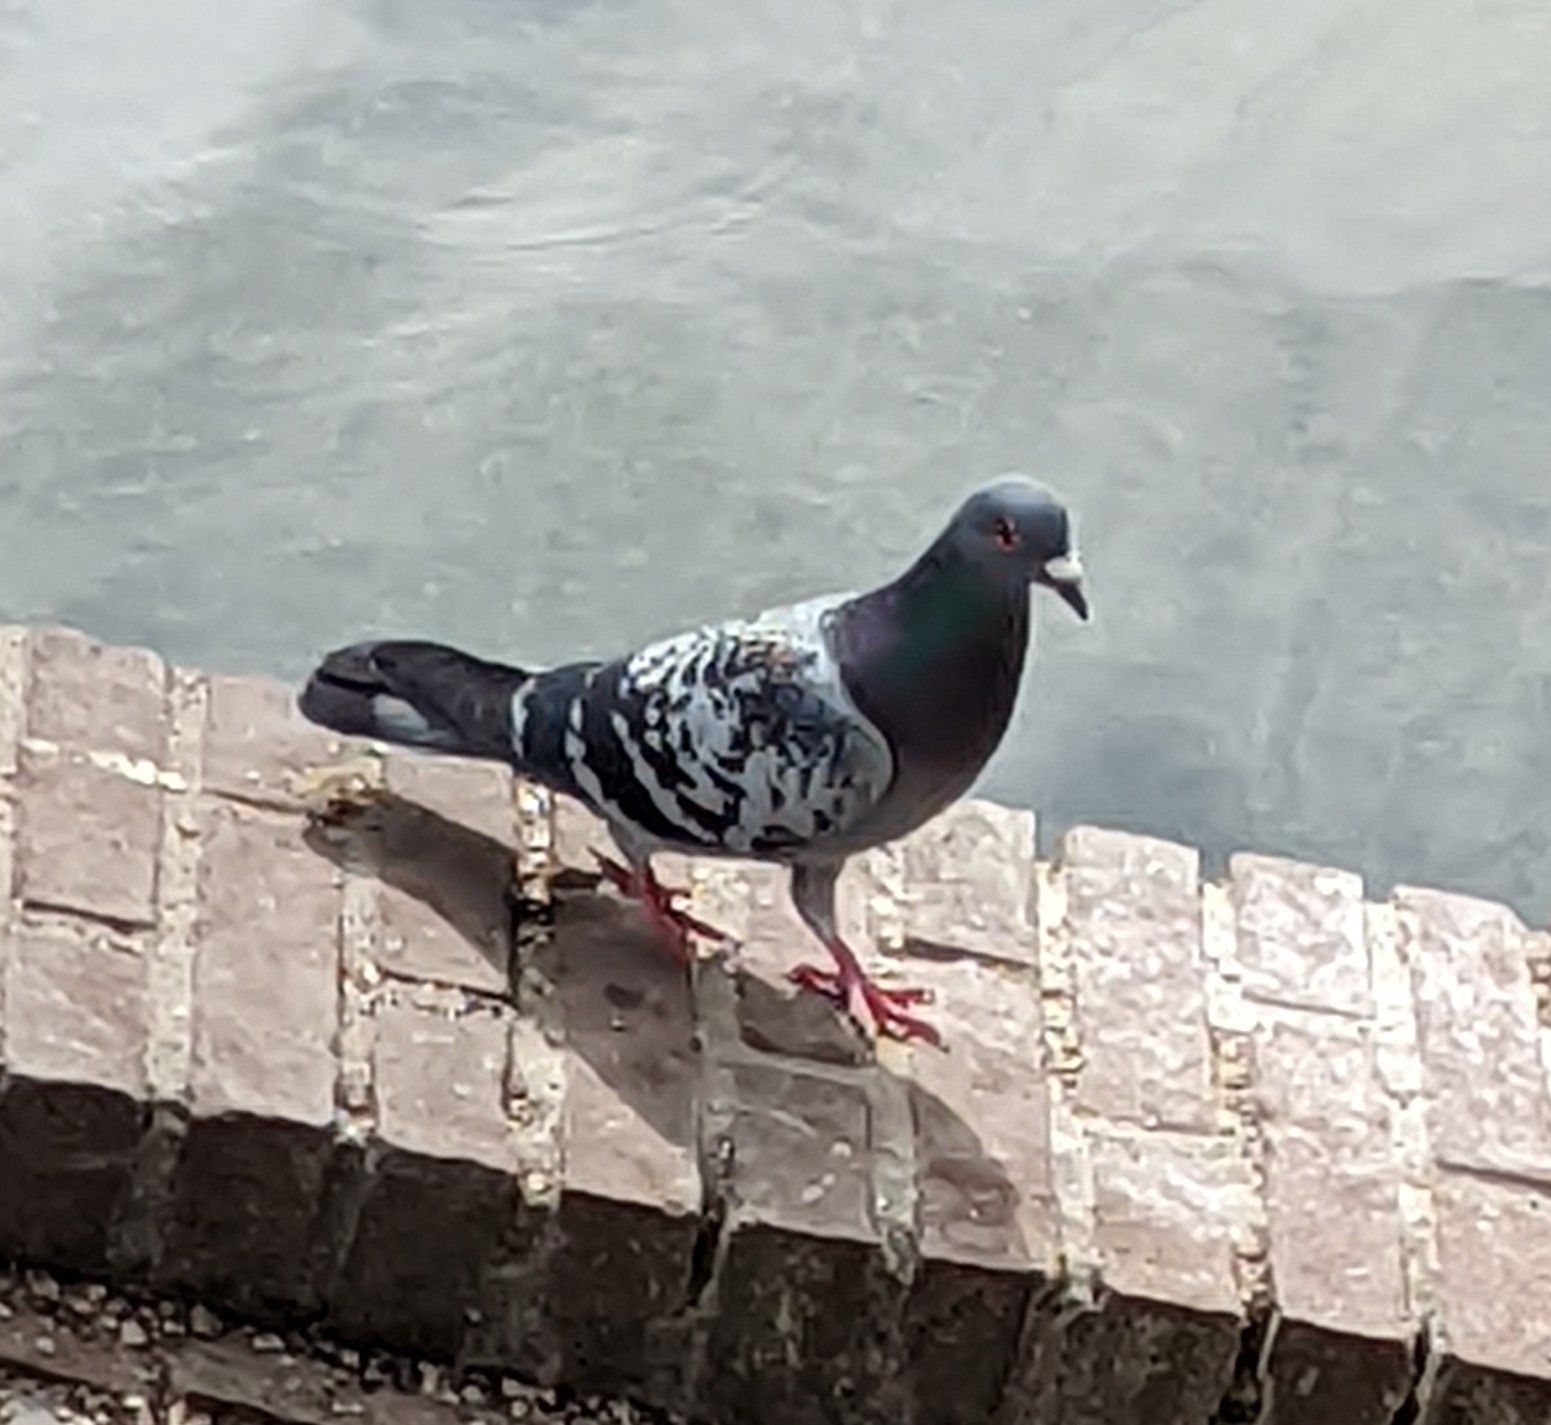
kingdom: Animalia
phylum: Chordata
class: Aves
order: Columbiformes
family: Columbidae
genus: Columba
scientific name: Columba livia
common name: Rock pigeon
